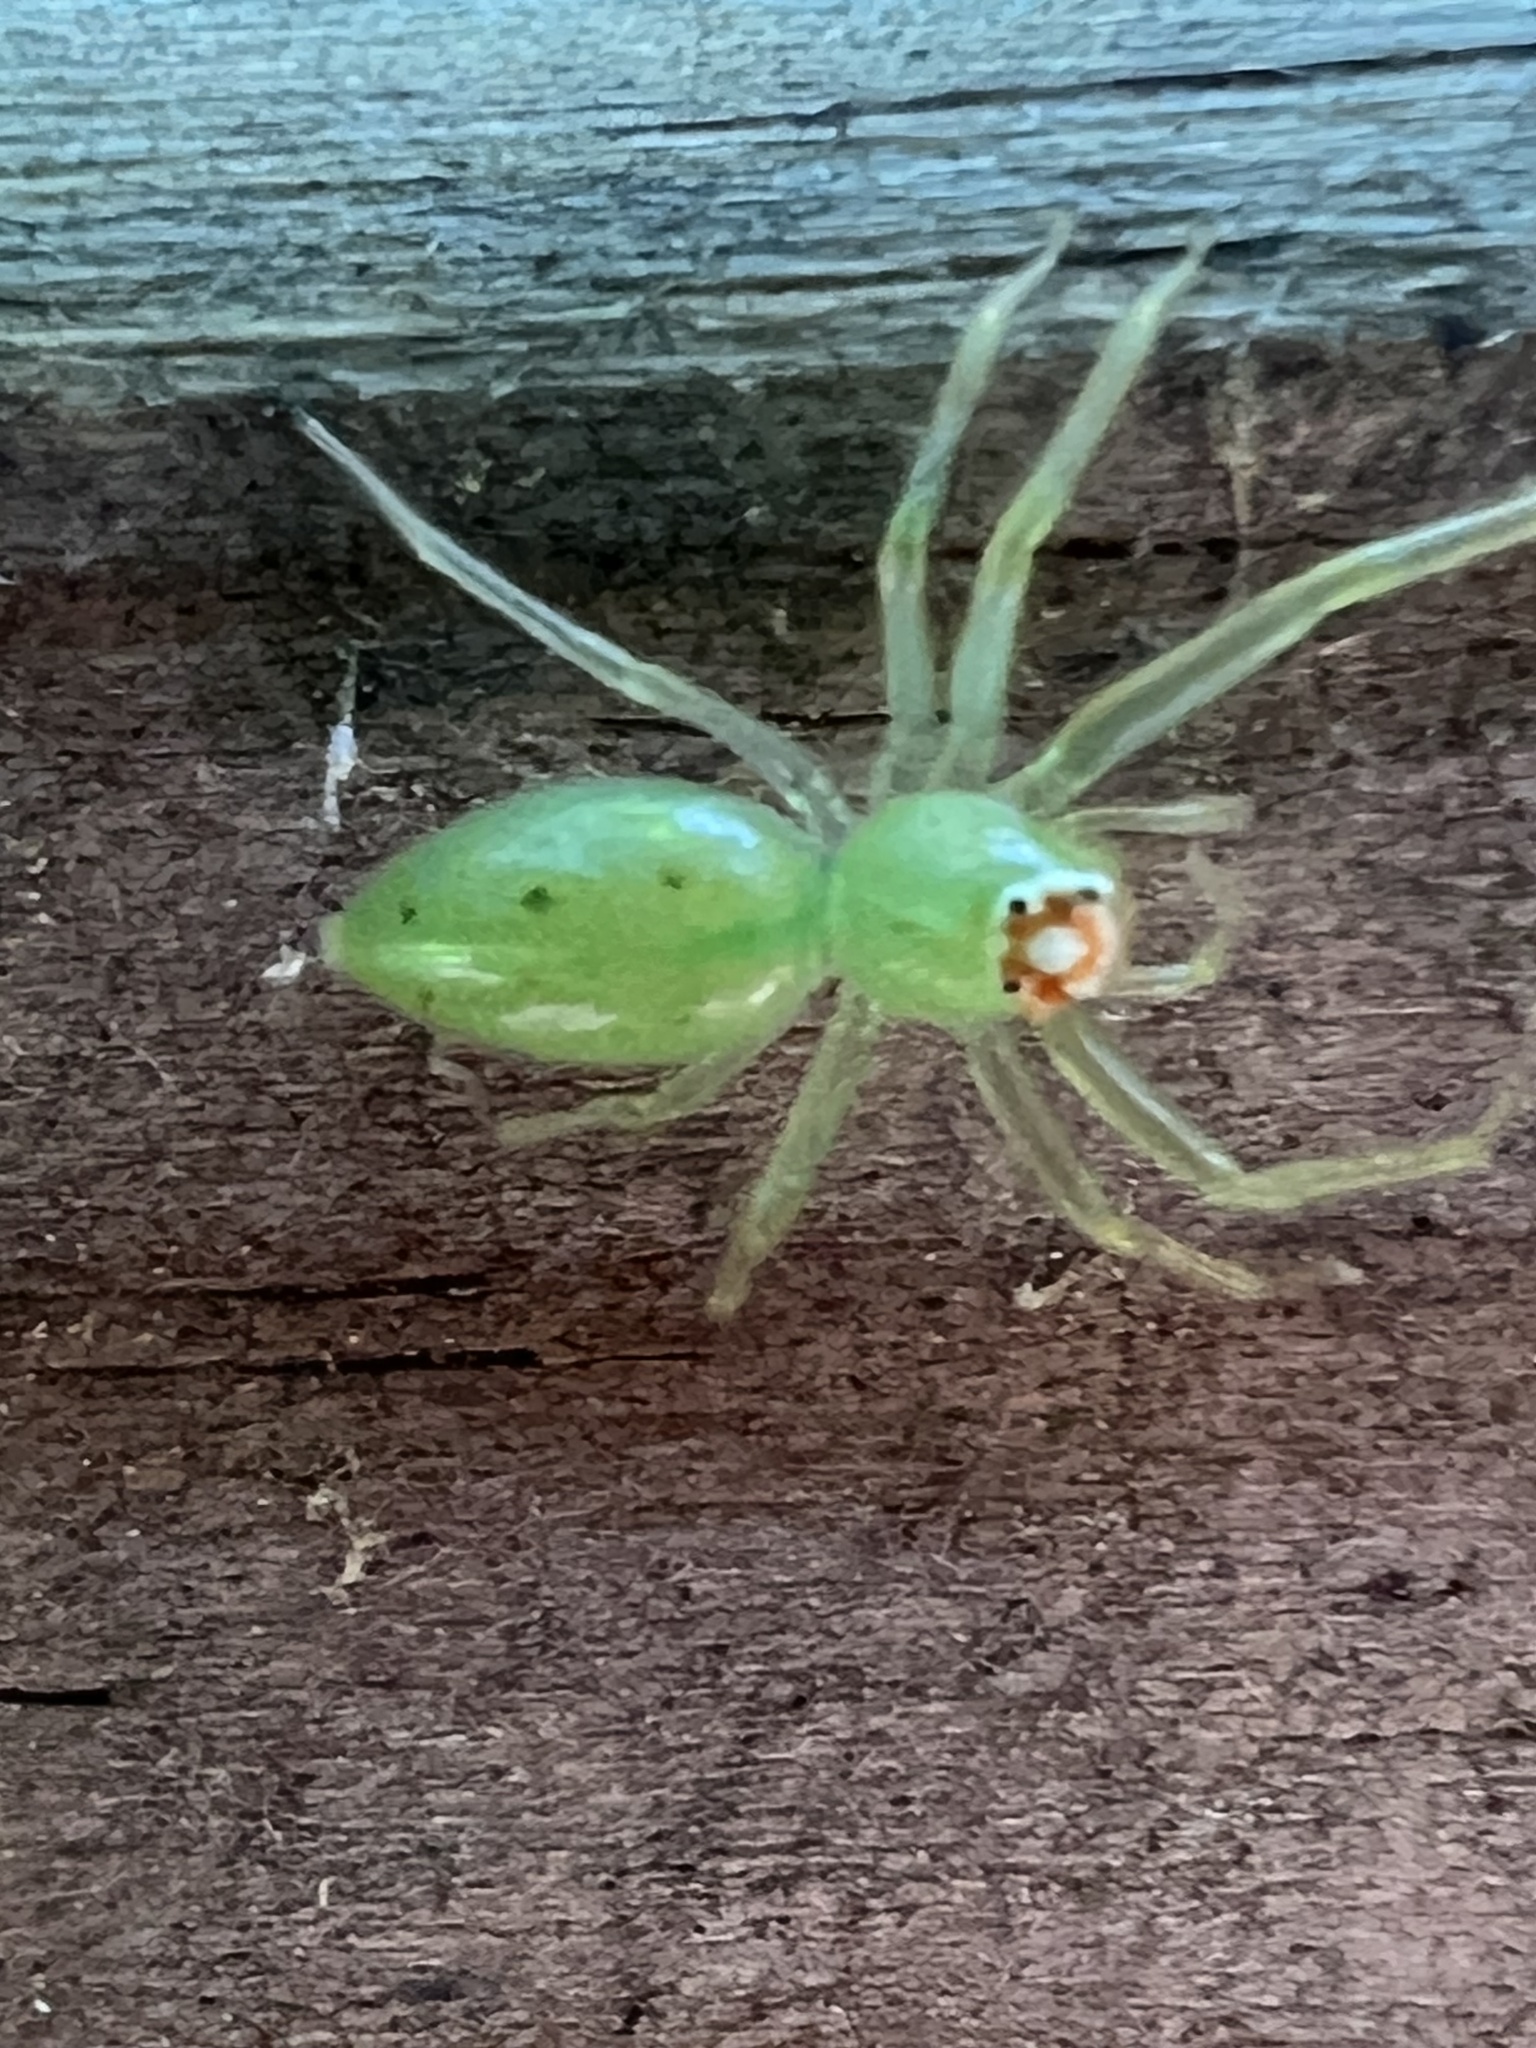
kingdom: Animalia
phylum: Arthropoda
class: Arachnida
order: Araneae
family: Salticidae
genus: Lyssomanes
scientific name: Lyssomanes viridis
